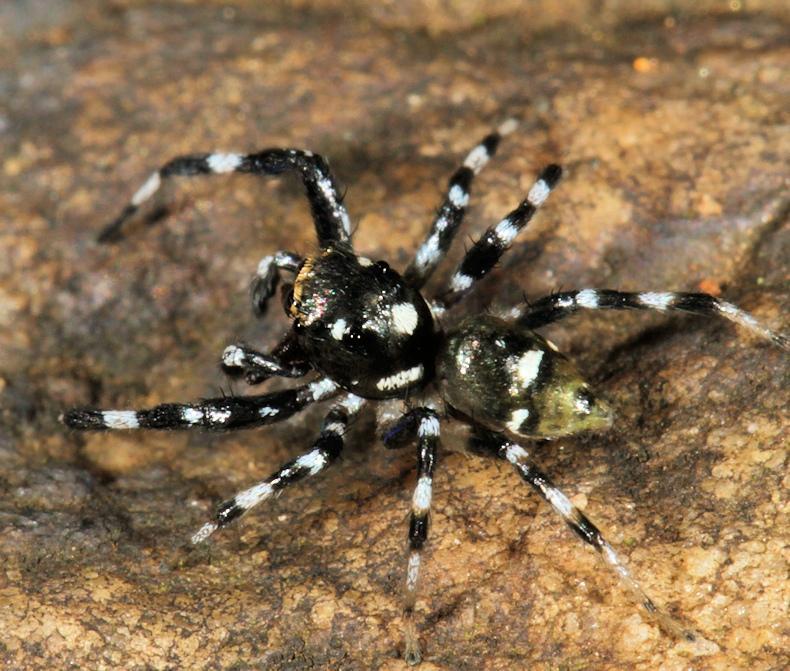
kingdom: Animalia
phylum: Arthropoda
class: Arachnida
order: Araneae
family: Salticidae
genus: Phintella
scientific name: Phintella aequipes
